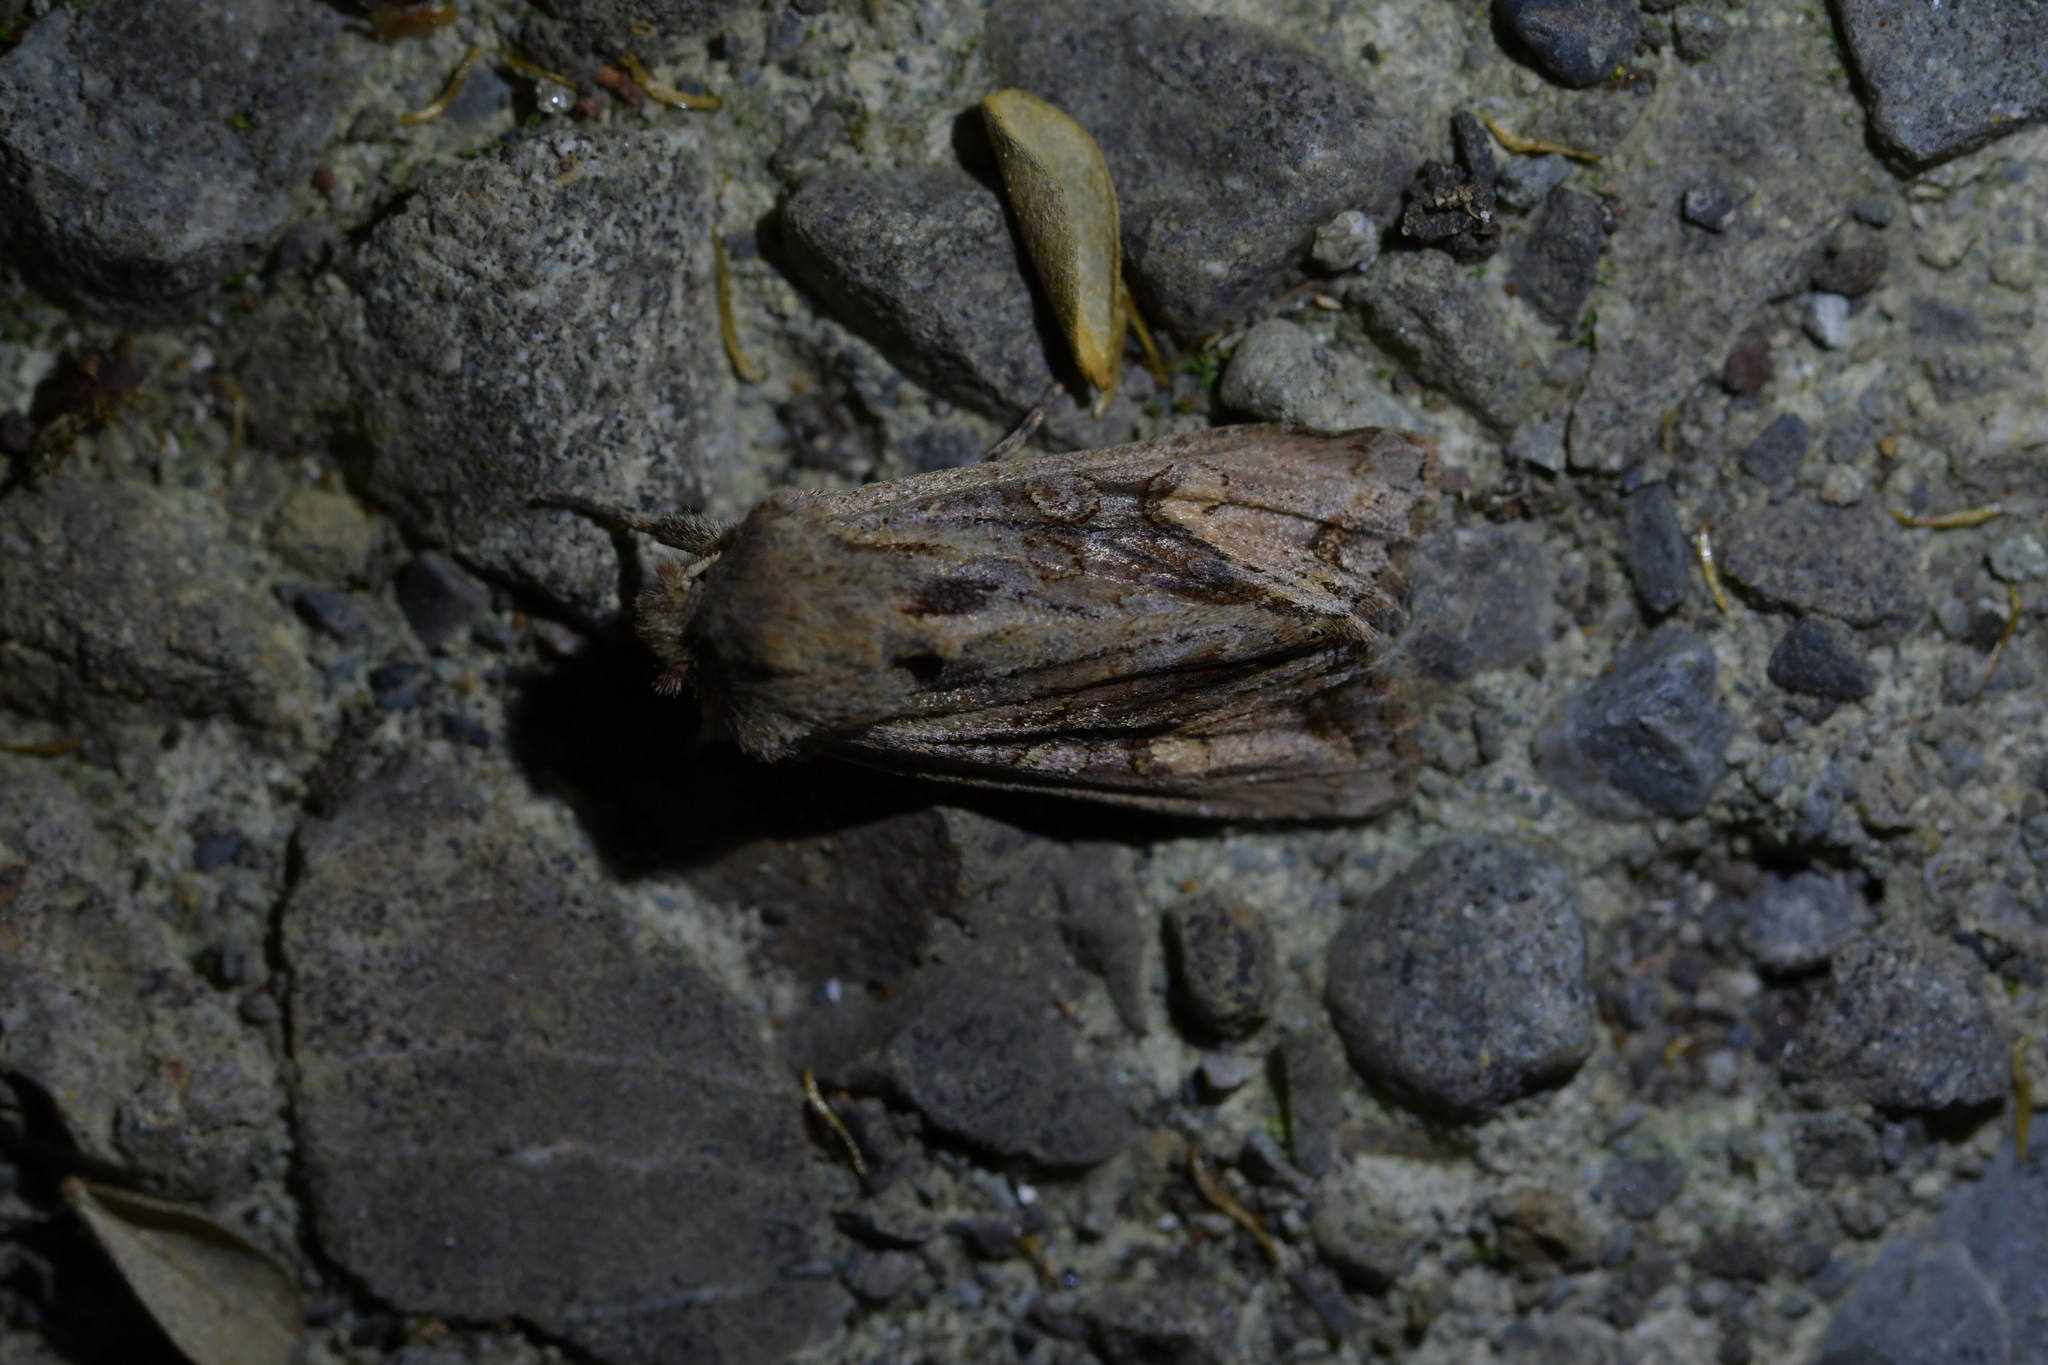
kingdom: Animalia
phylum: Arthropoda
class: Insecta
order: Lepidoptera
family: Noctuidae
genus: Ichneutica
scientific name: Ichneutica
